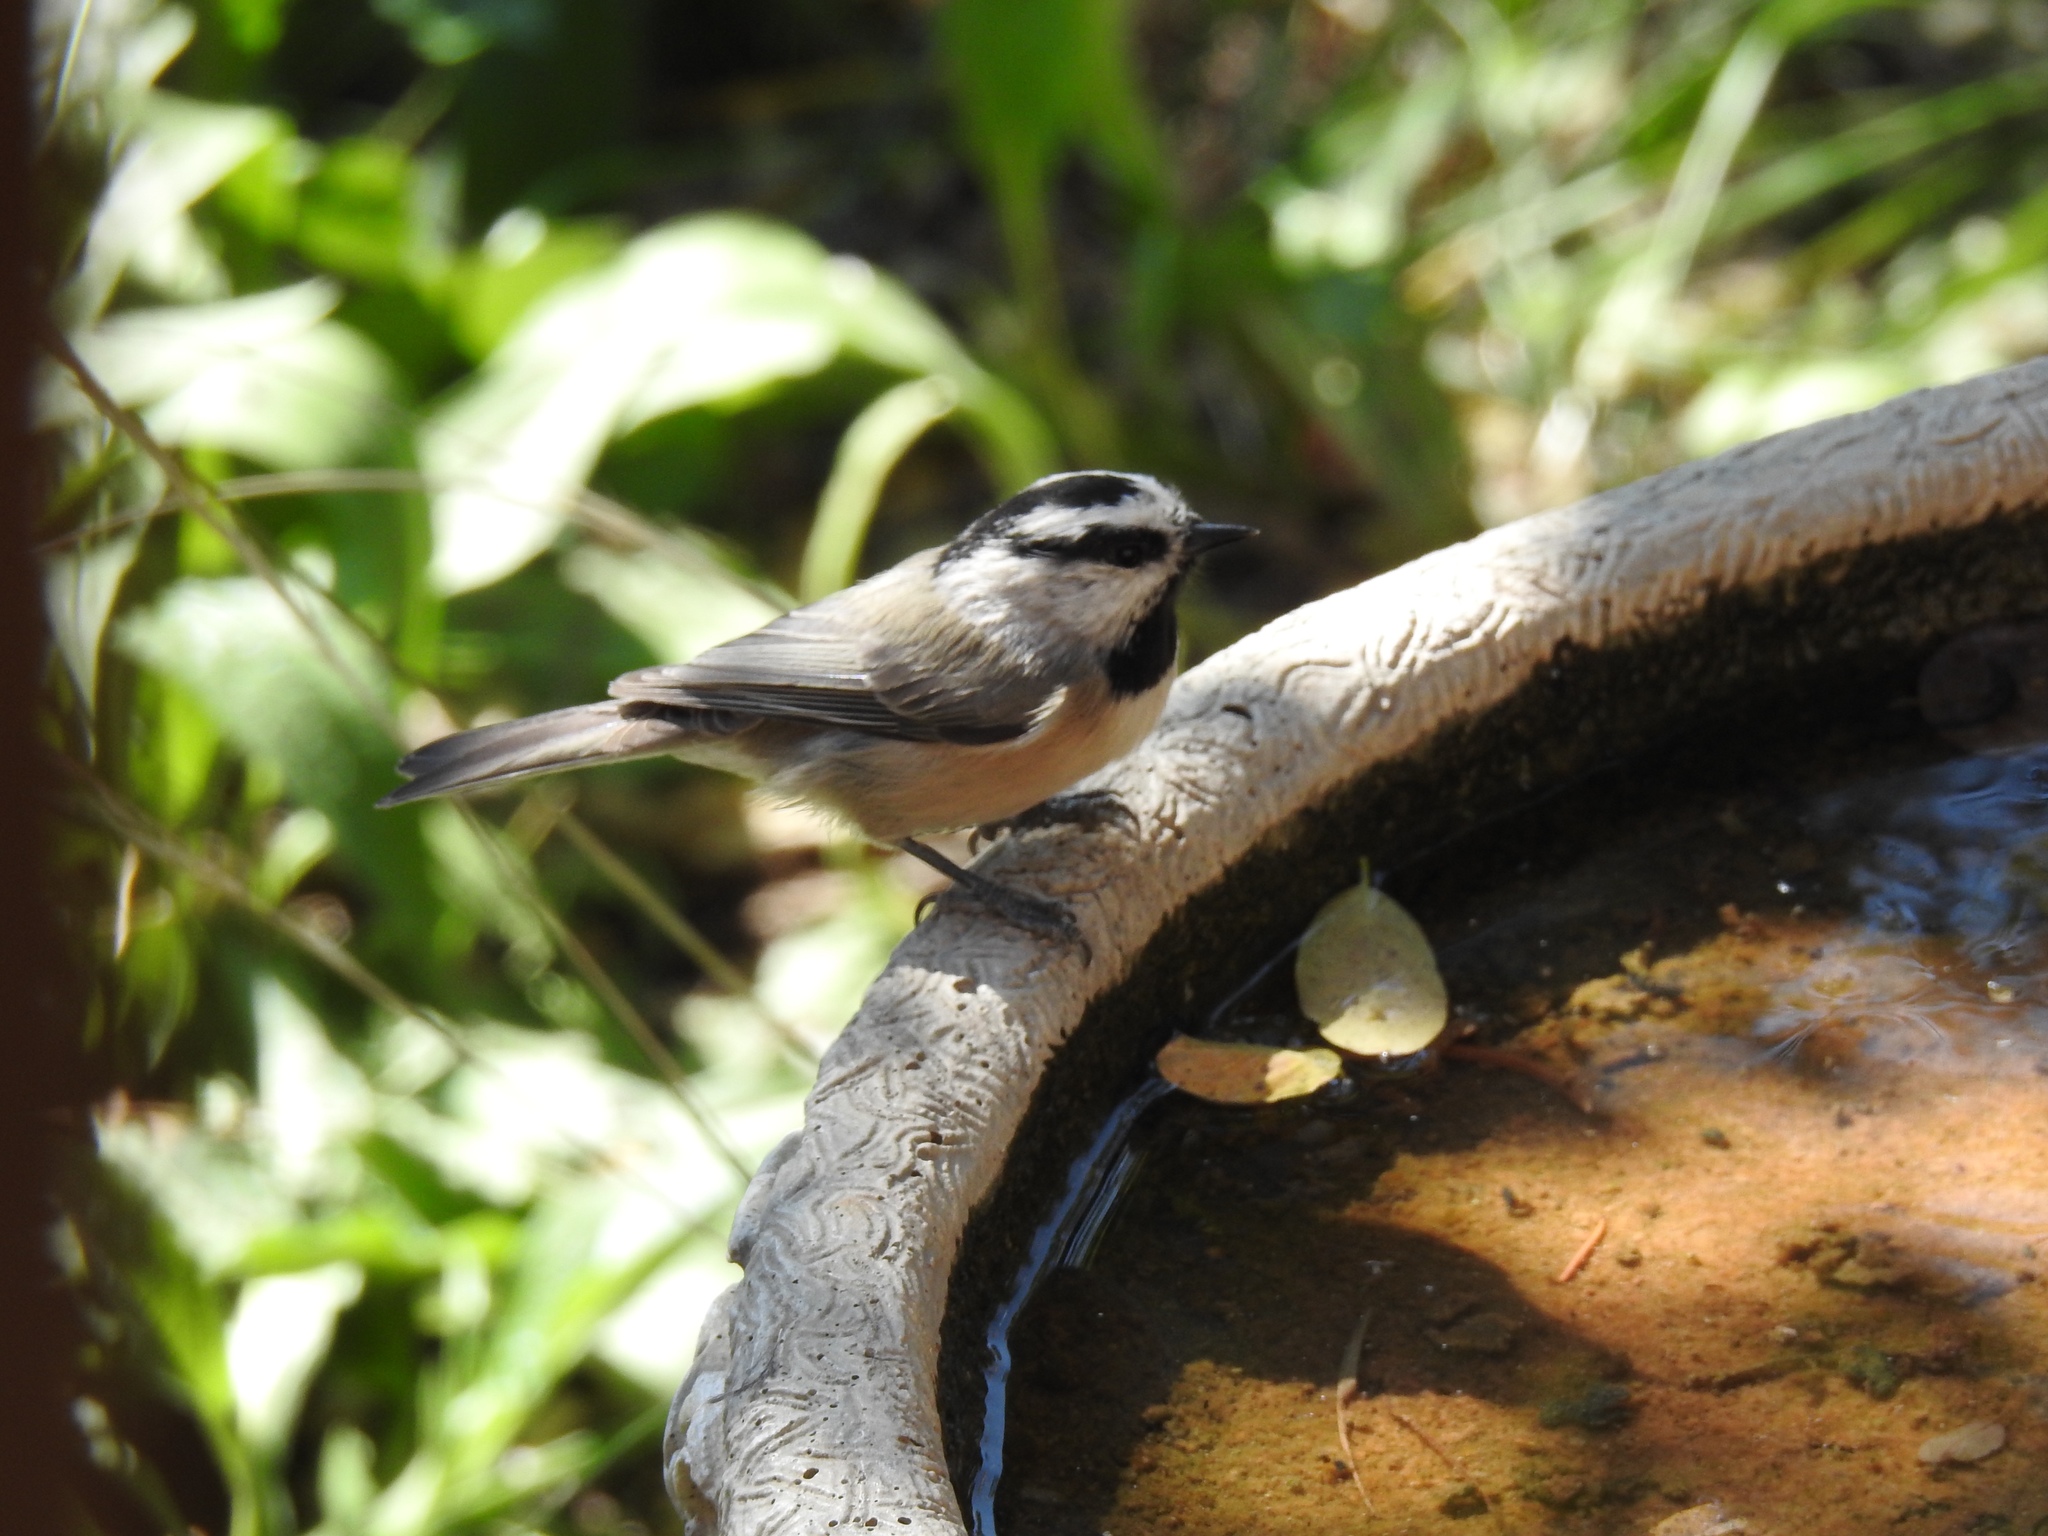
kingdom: Animalia
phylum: Chordata
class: Aves
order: Passeriformes
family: Paridae
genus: Poecile
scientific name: Poecile gambeli
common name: Mountain chickadee
